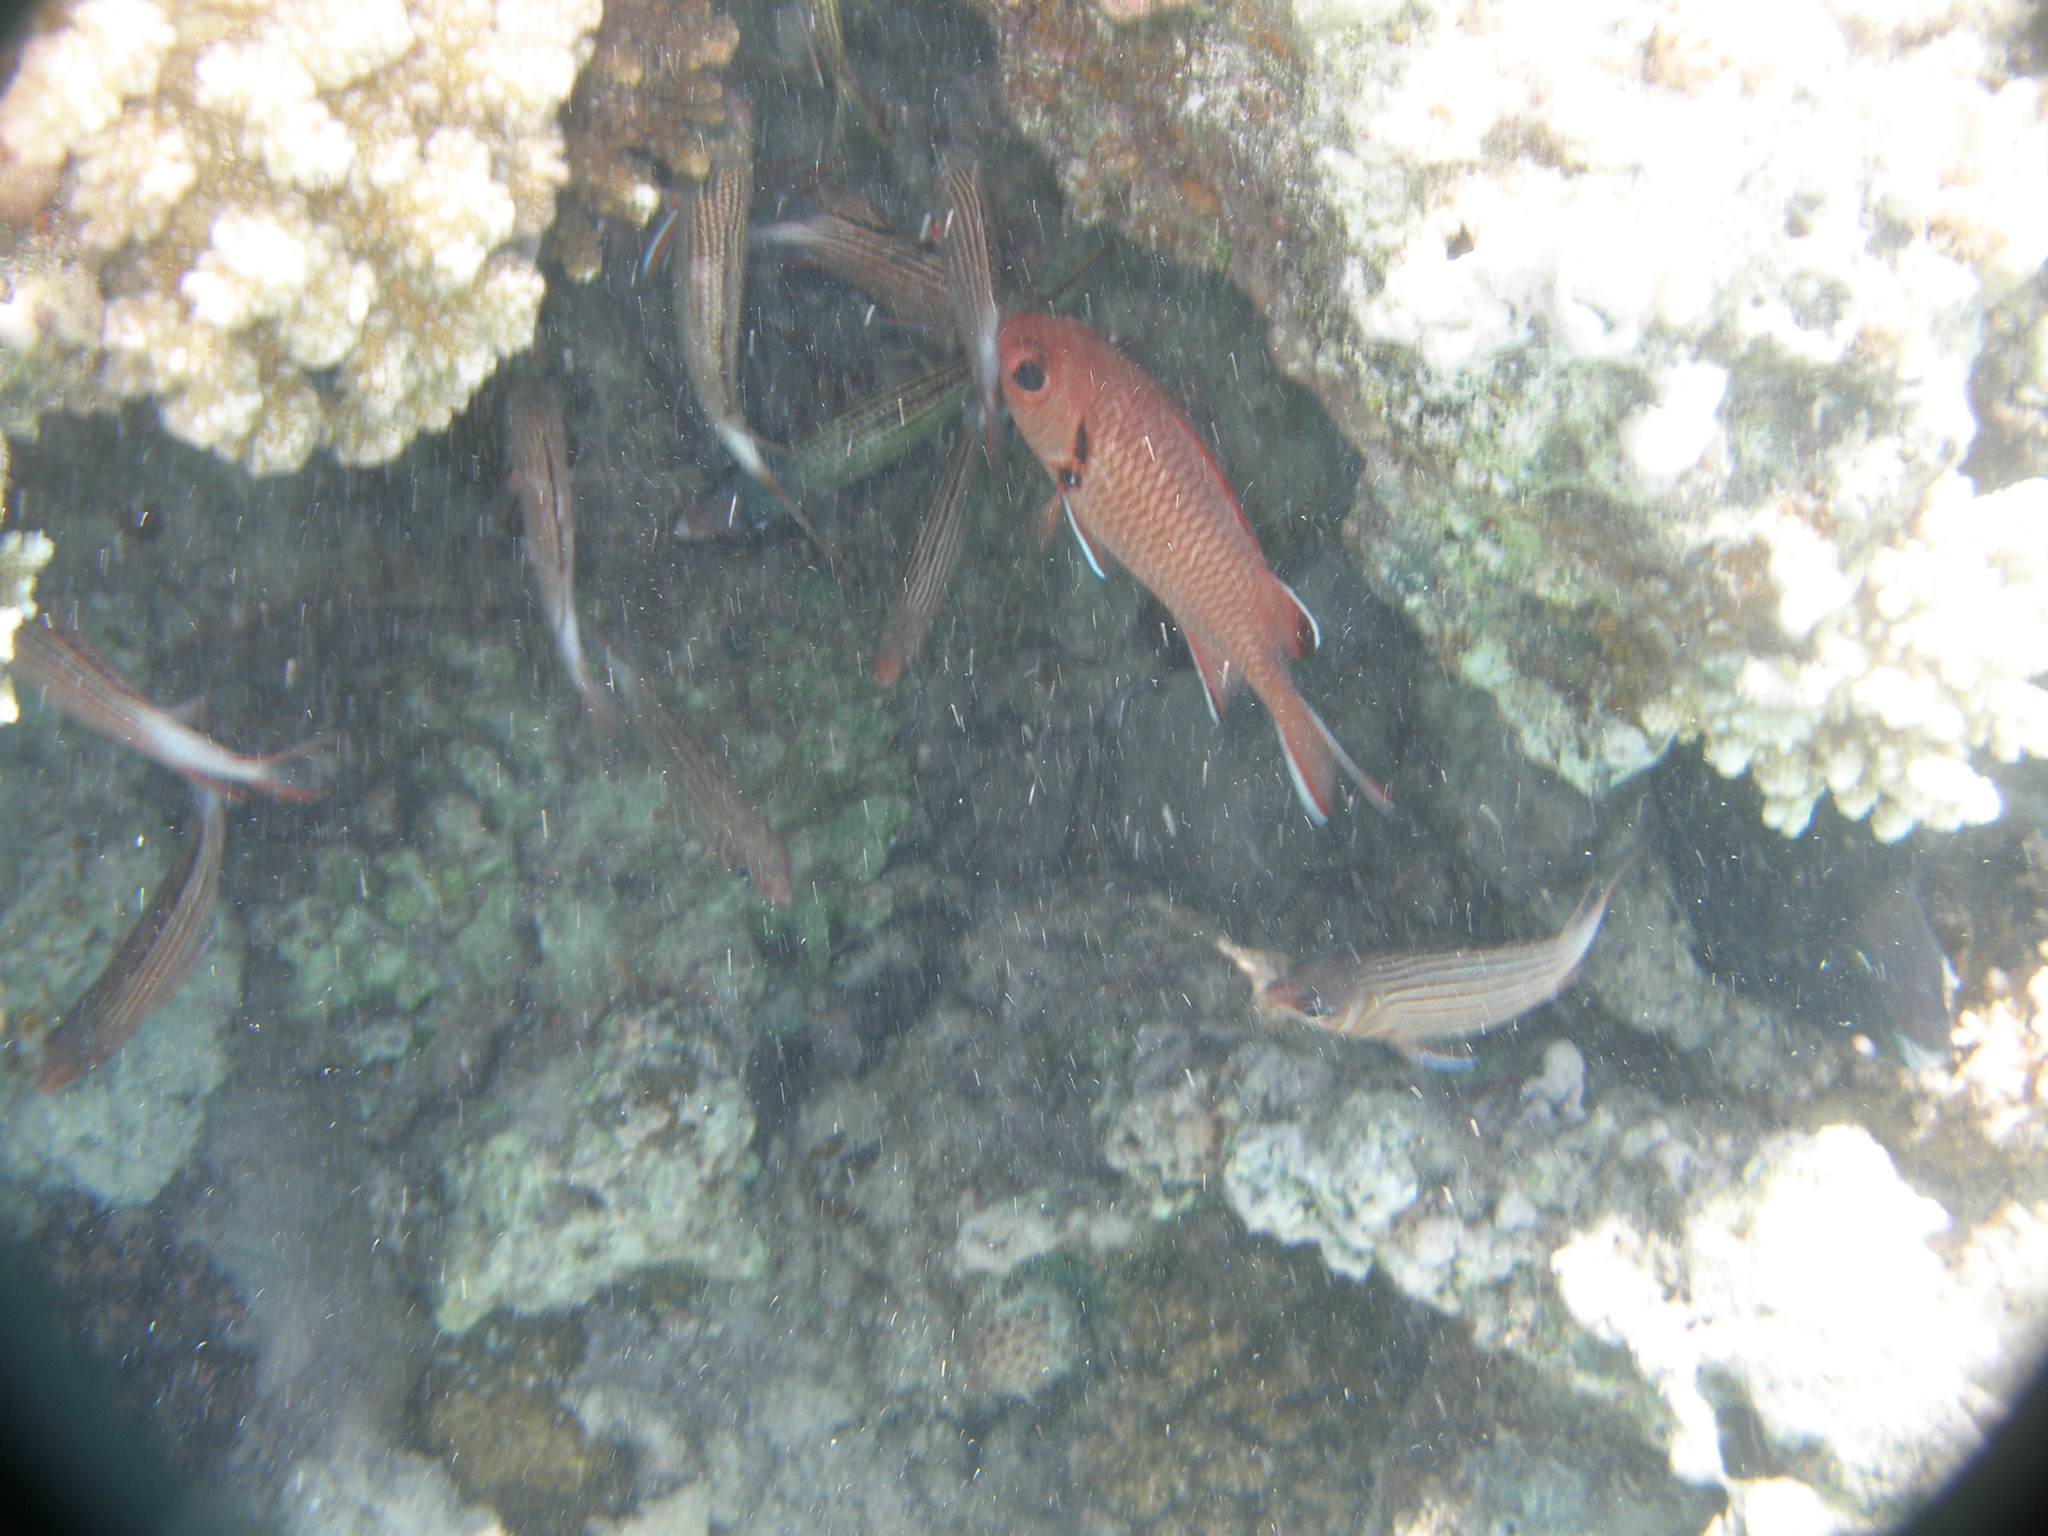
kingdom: Animalia
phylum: Chordata
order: Beryciformes
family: Holocentridae
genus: Myripristis
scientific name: Myripristis murdjan
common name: Big-eye soldierfish
